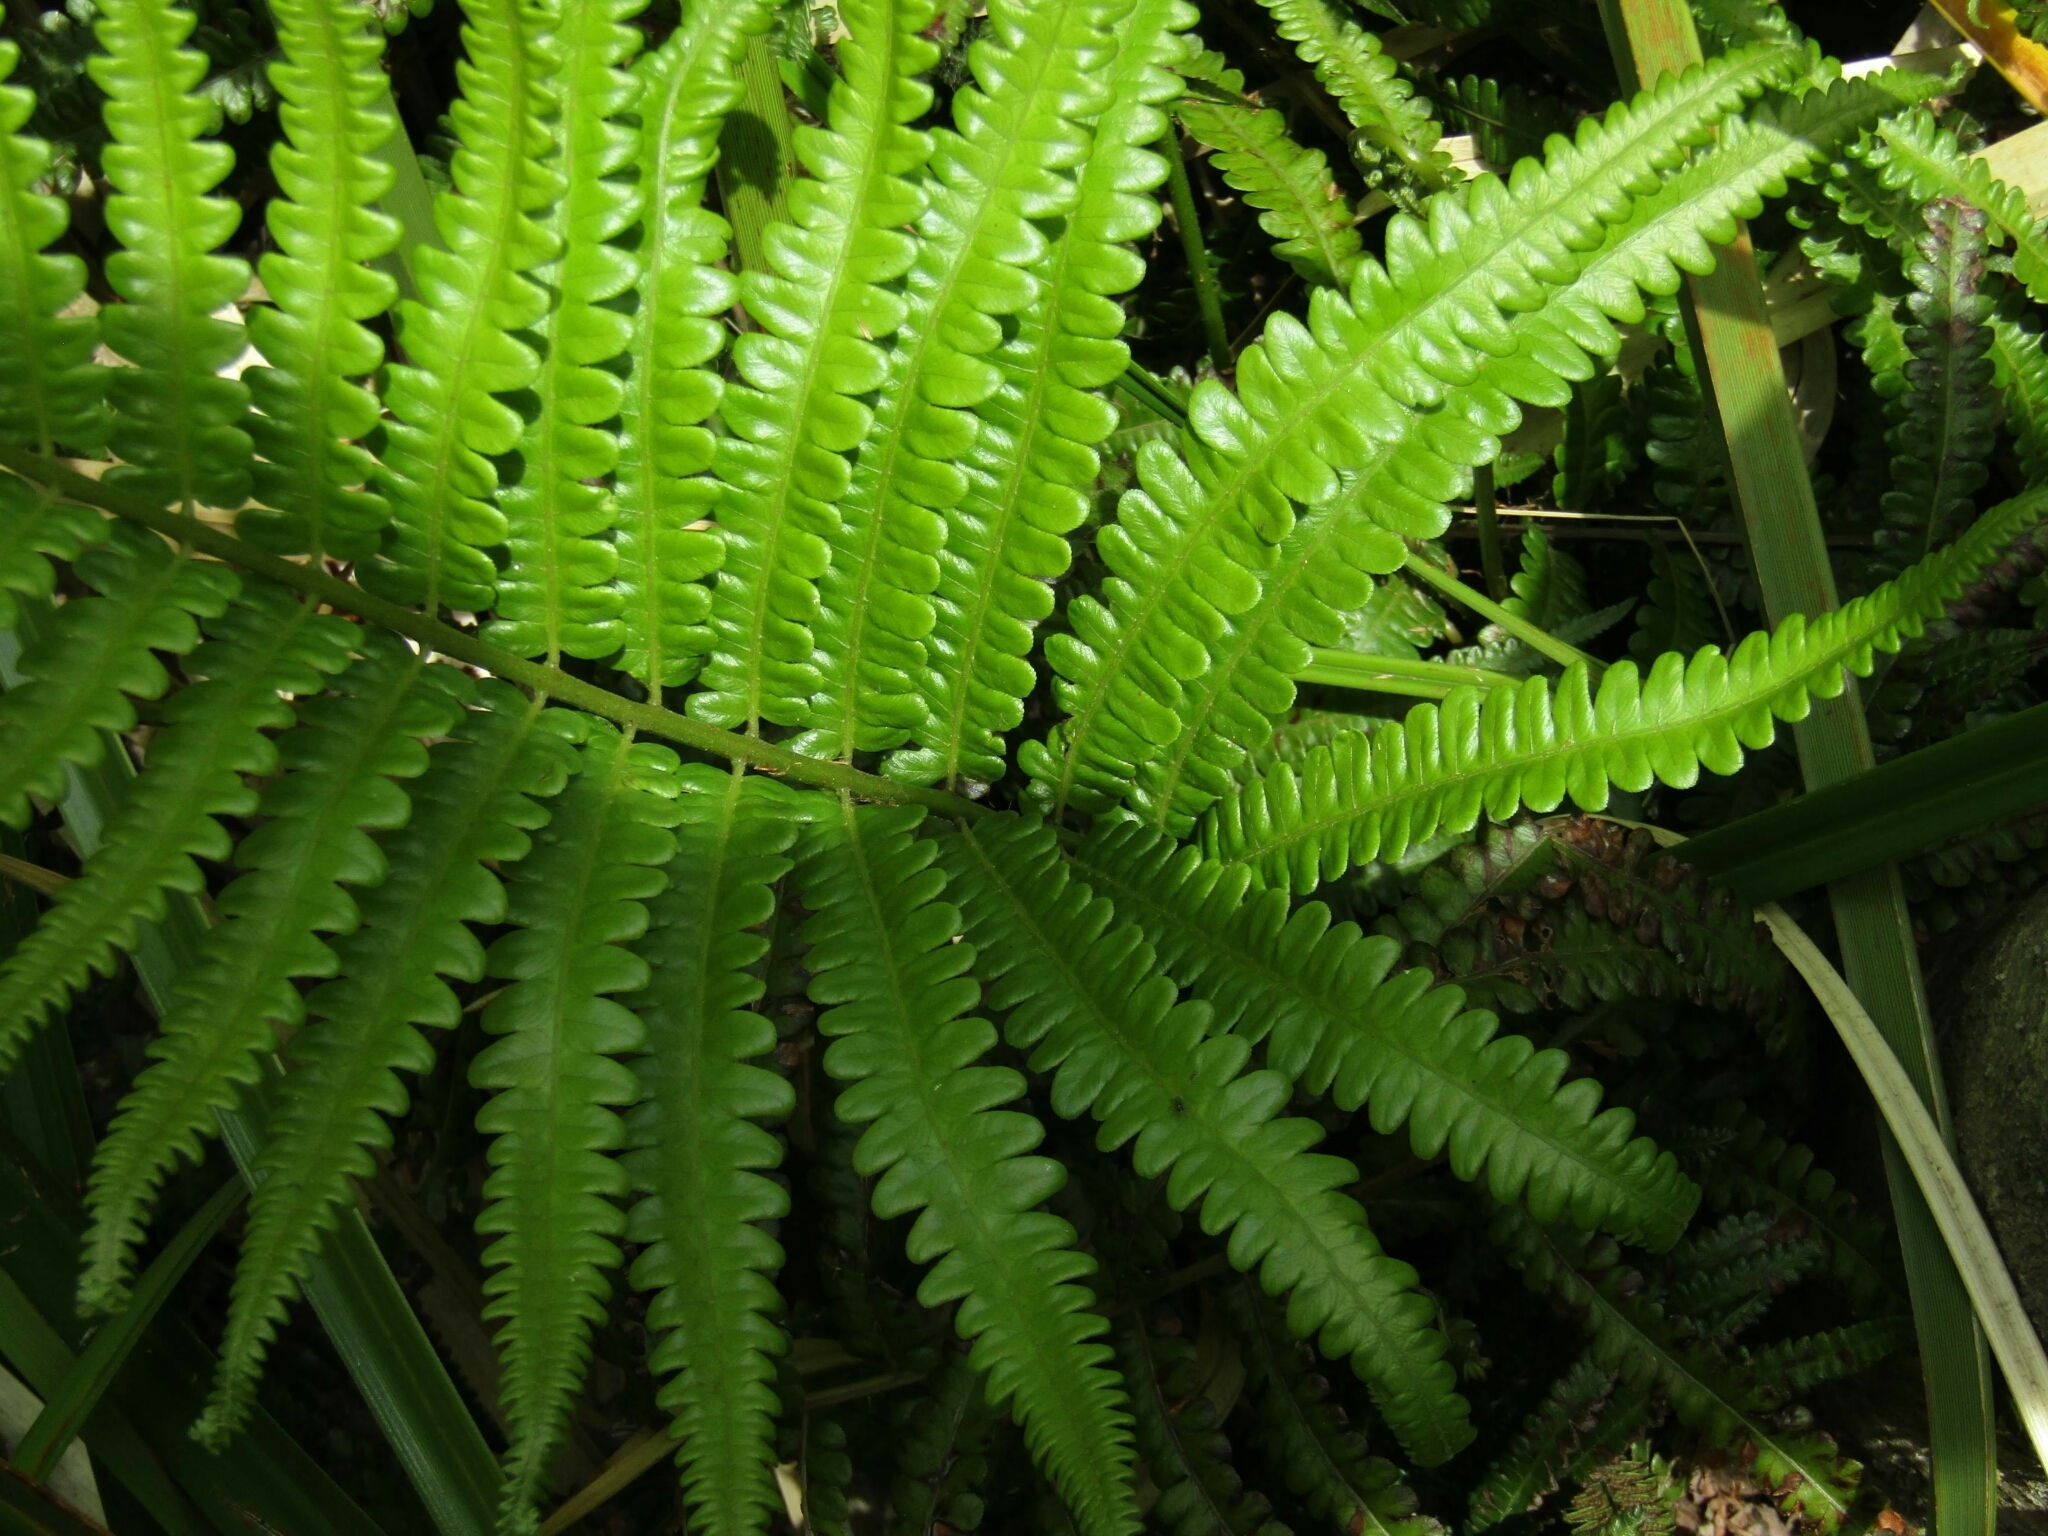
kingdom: Plantae
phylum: Tracheophyta
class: Polypodiopsida
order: Polypodiales
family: Thelypteridaceae
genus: Cyclosorus
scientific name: Cyclosorus interruptus
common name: Neke fern
